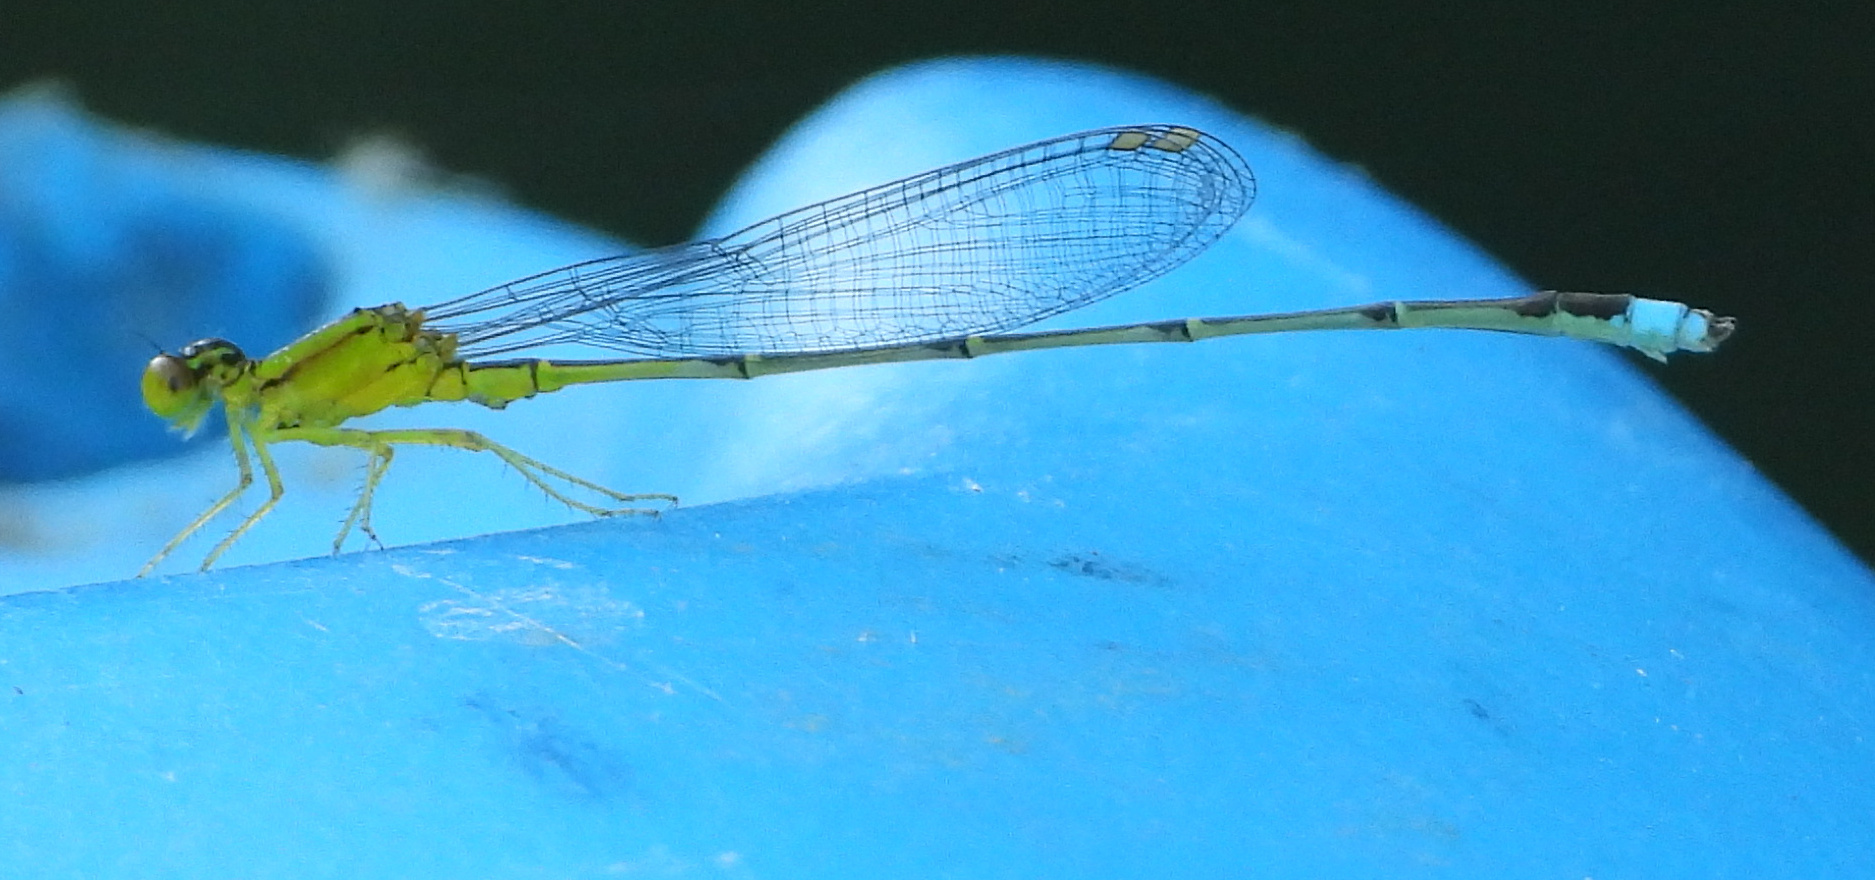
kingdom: Animalia
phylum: Arthropoda
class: Insecta
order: Odonata
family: Coenagrionidae
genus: Enallagma
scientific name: Enallagma vesperum
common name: Vesper bluet
